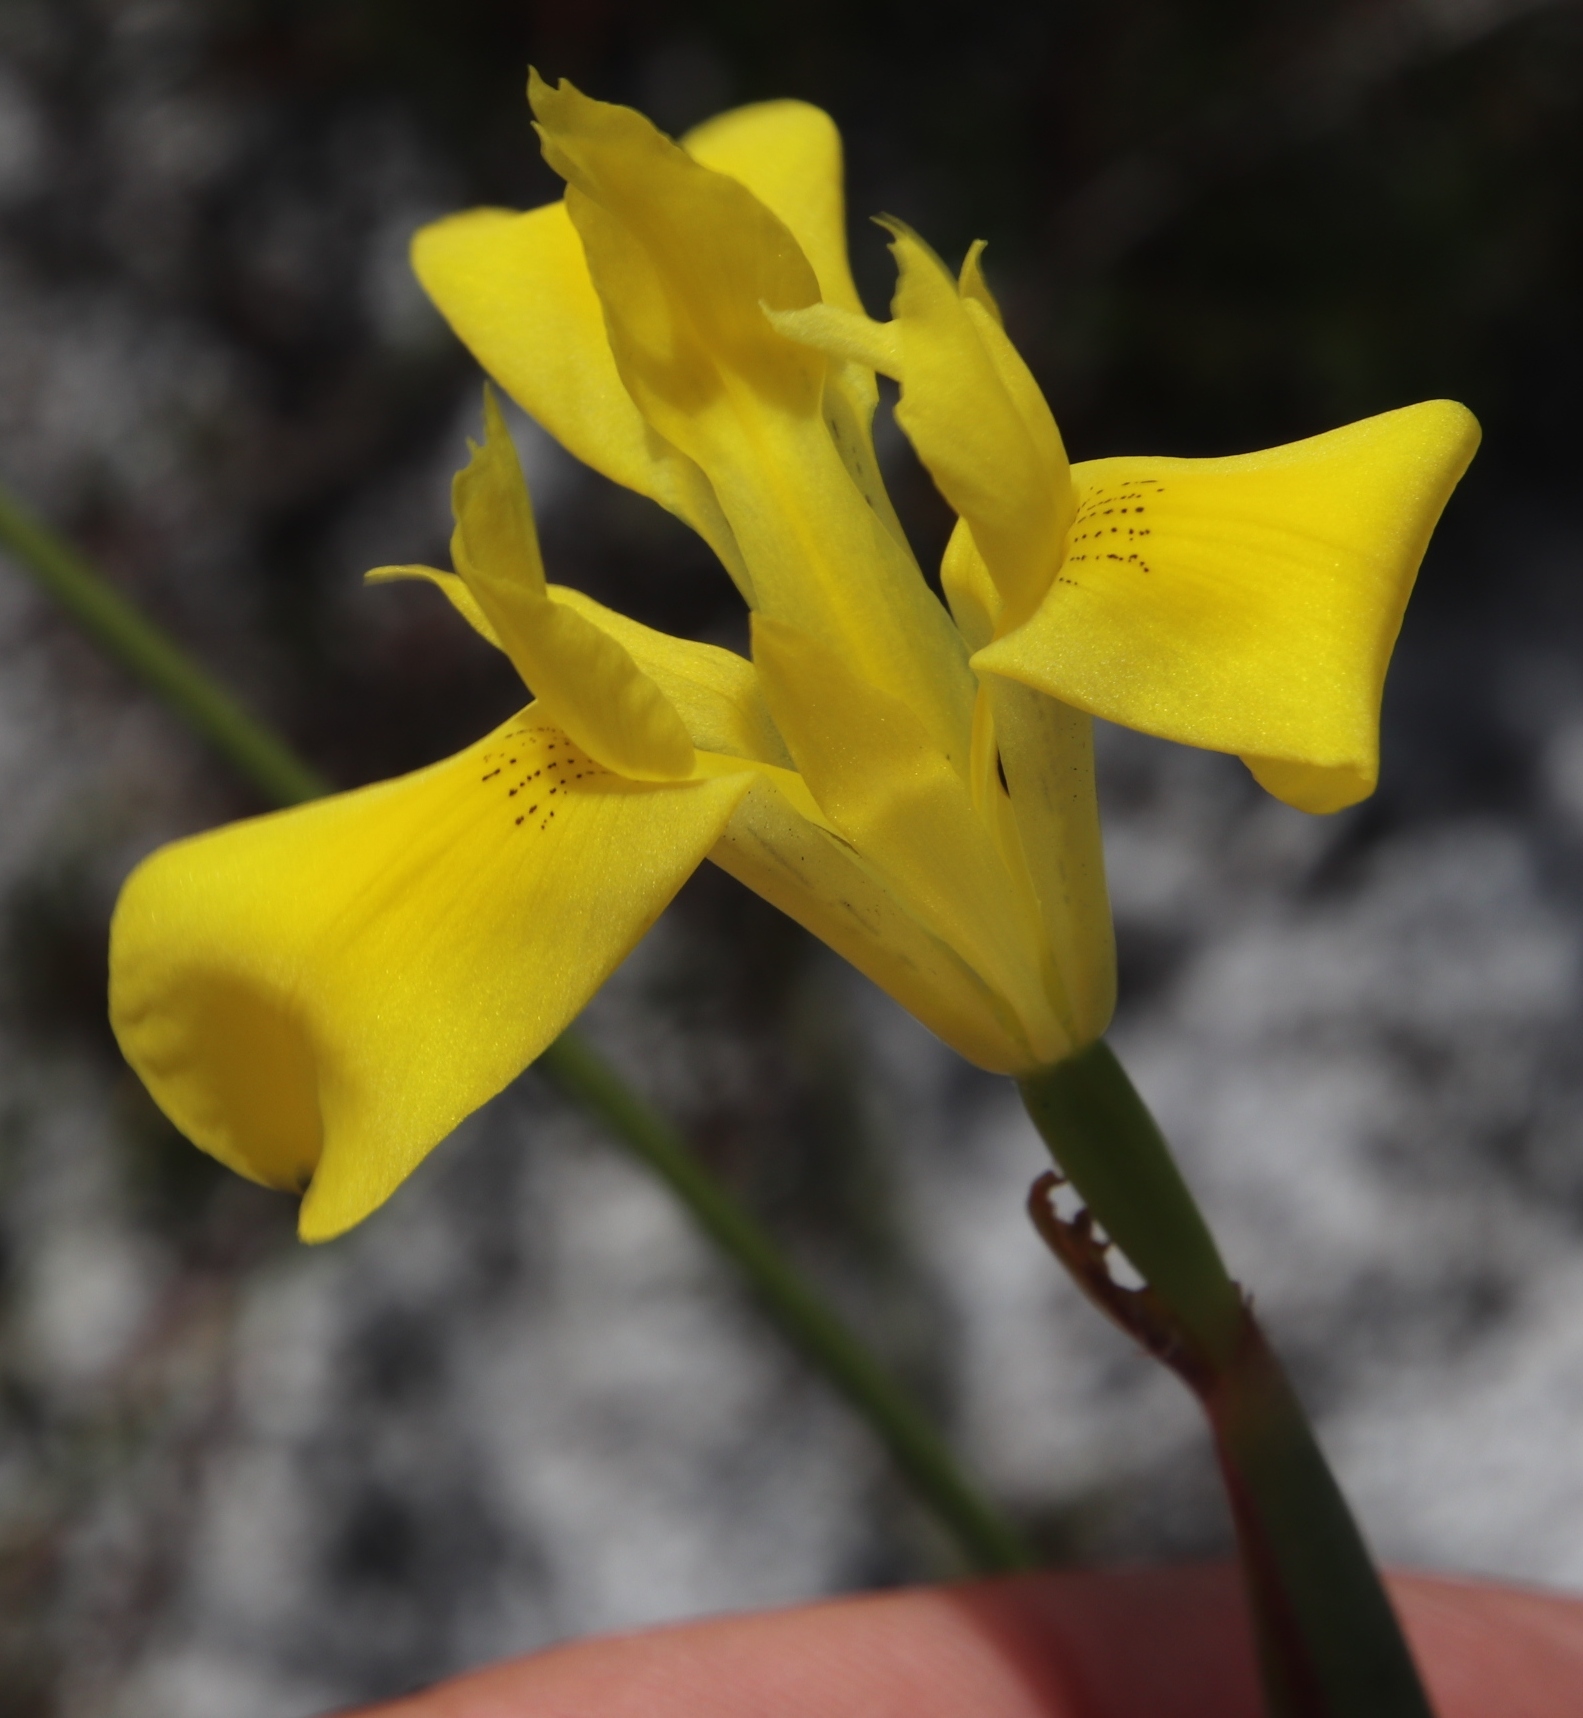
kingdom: Plantae
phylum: Tracheophyta
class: Liliopsida
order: Asparagales
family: Iridaceae
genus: Moraea
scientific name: Moraea neglecta
